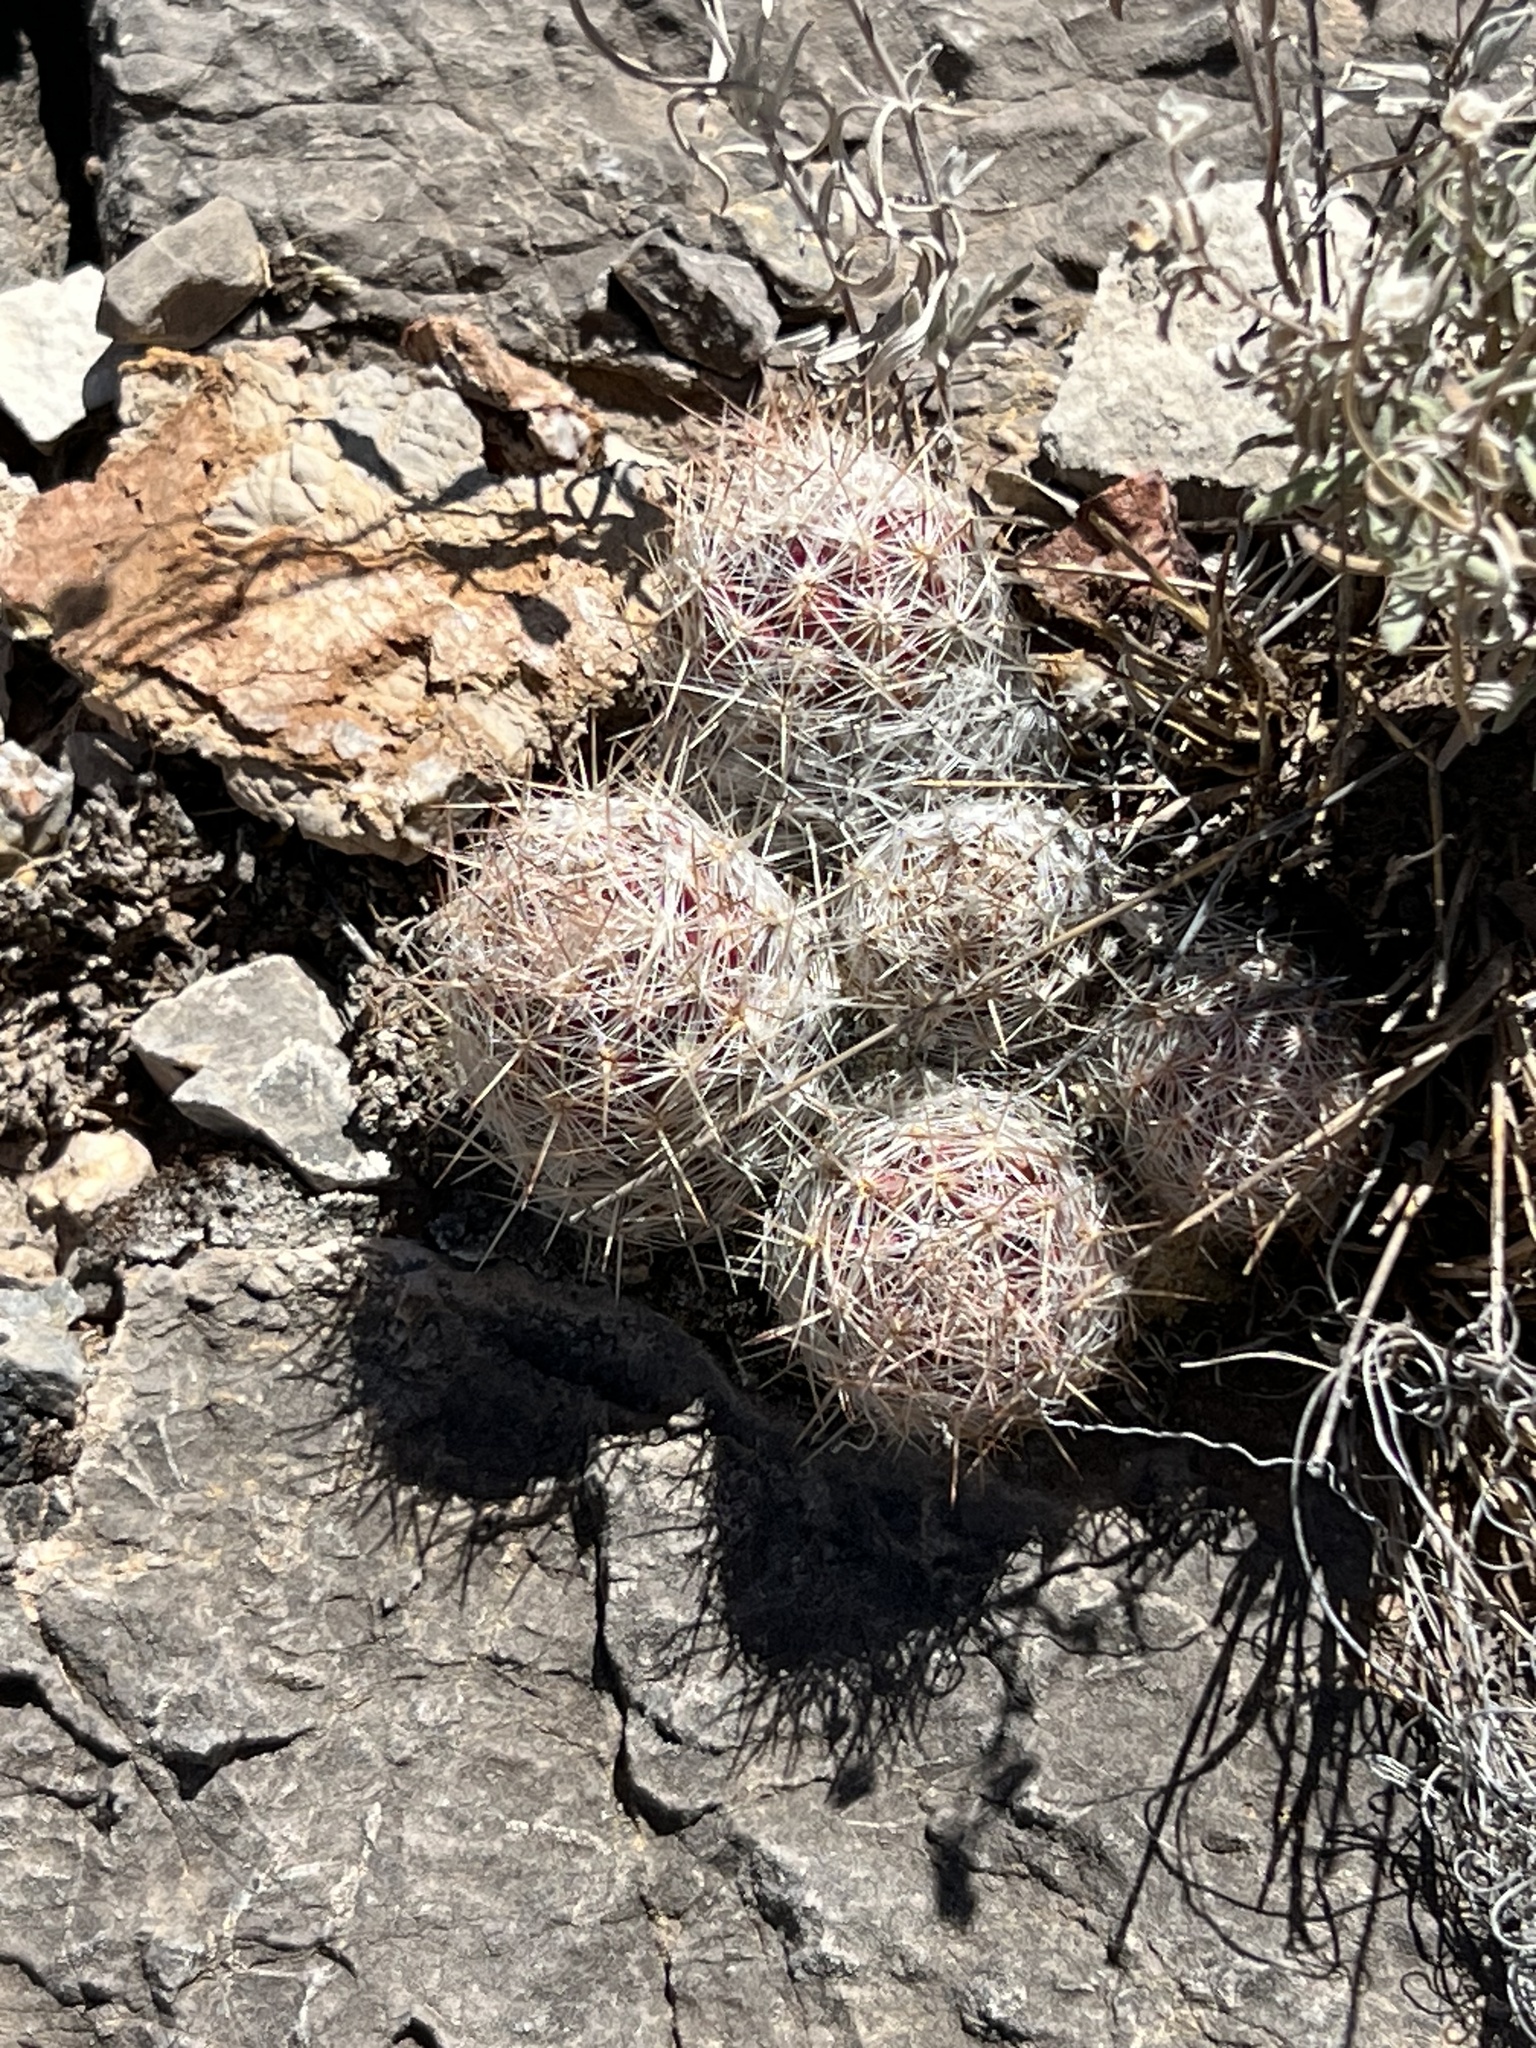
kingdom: Plantae
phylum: Tracheophyta
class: Magnoliopsida
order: Caryophyllales
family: Cactaceae
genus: Pelecyphora
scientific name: Pelecyphora tuberculosa
